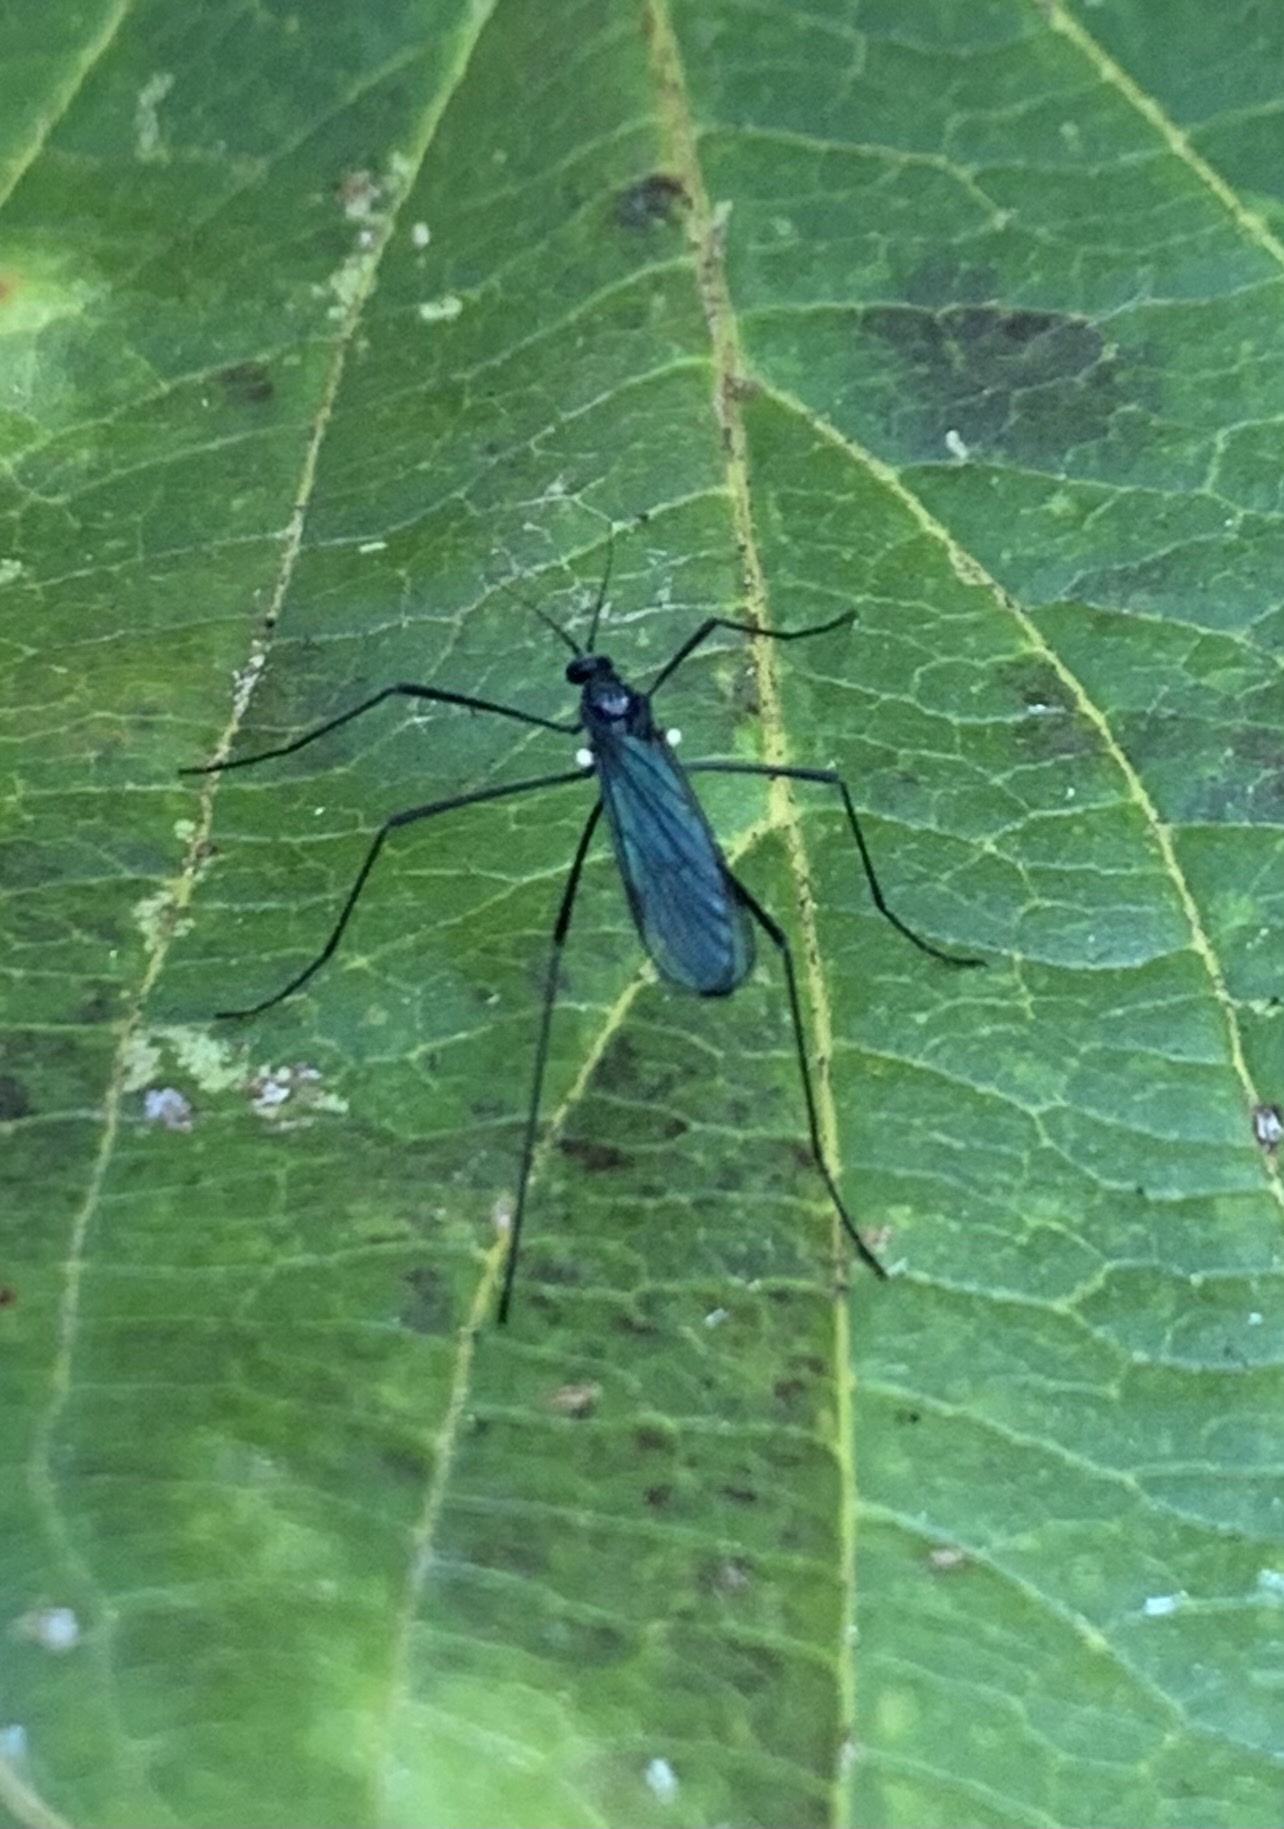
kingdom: Animalia
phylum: Arthropoda
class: Insecta
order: Diptera
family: Limoniidae
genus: Gnophomyia
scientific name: Gnophomyia tristissima
